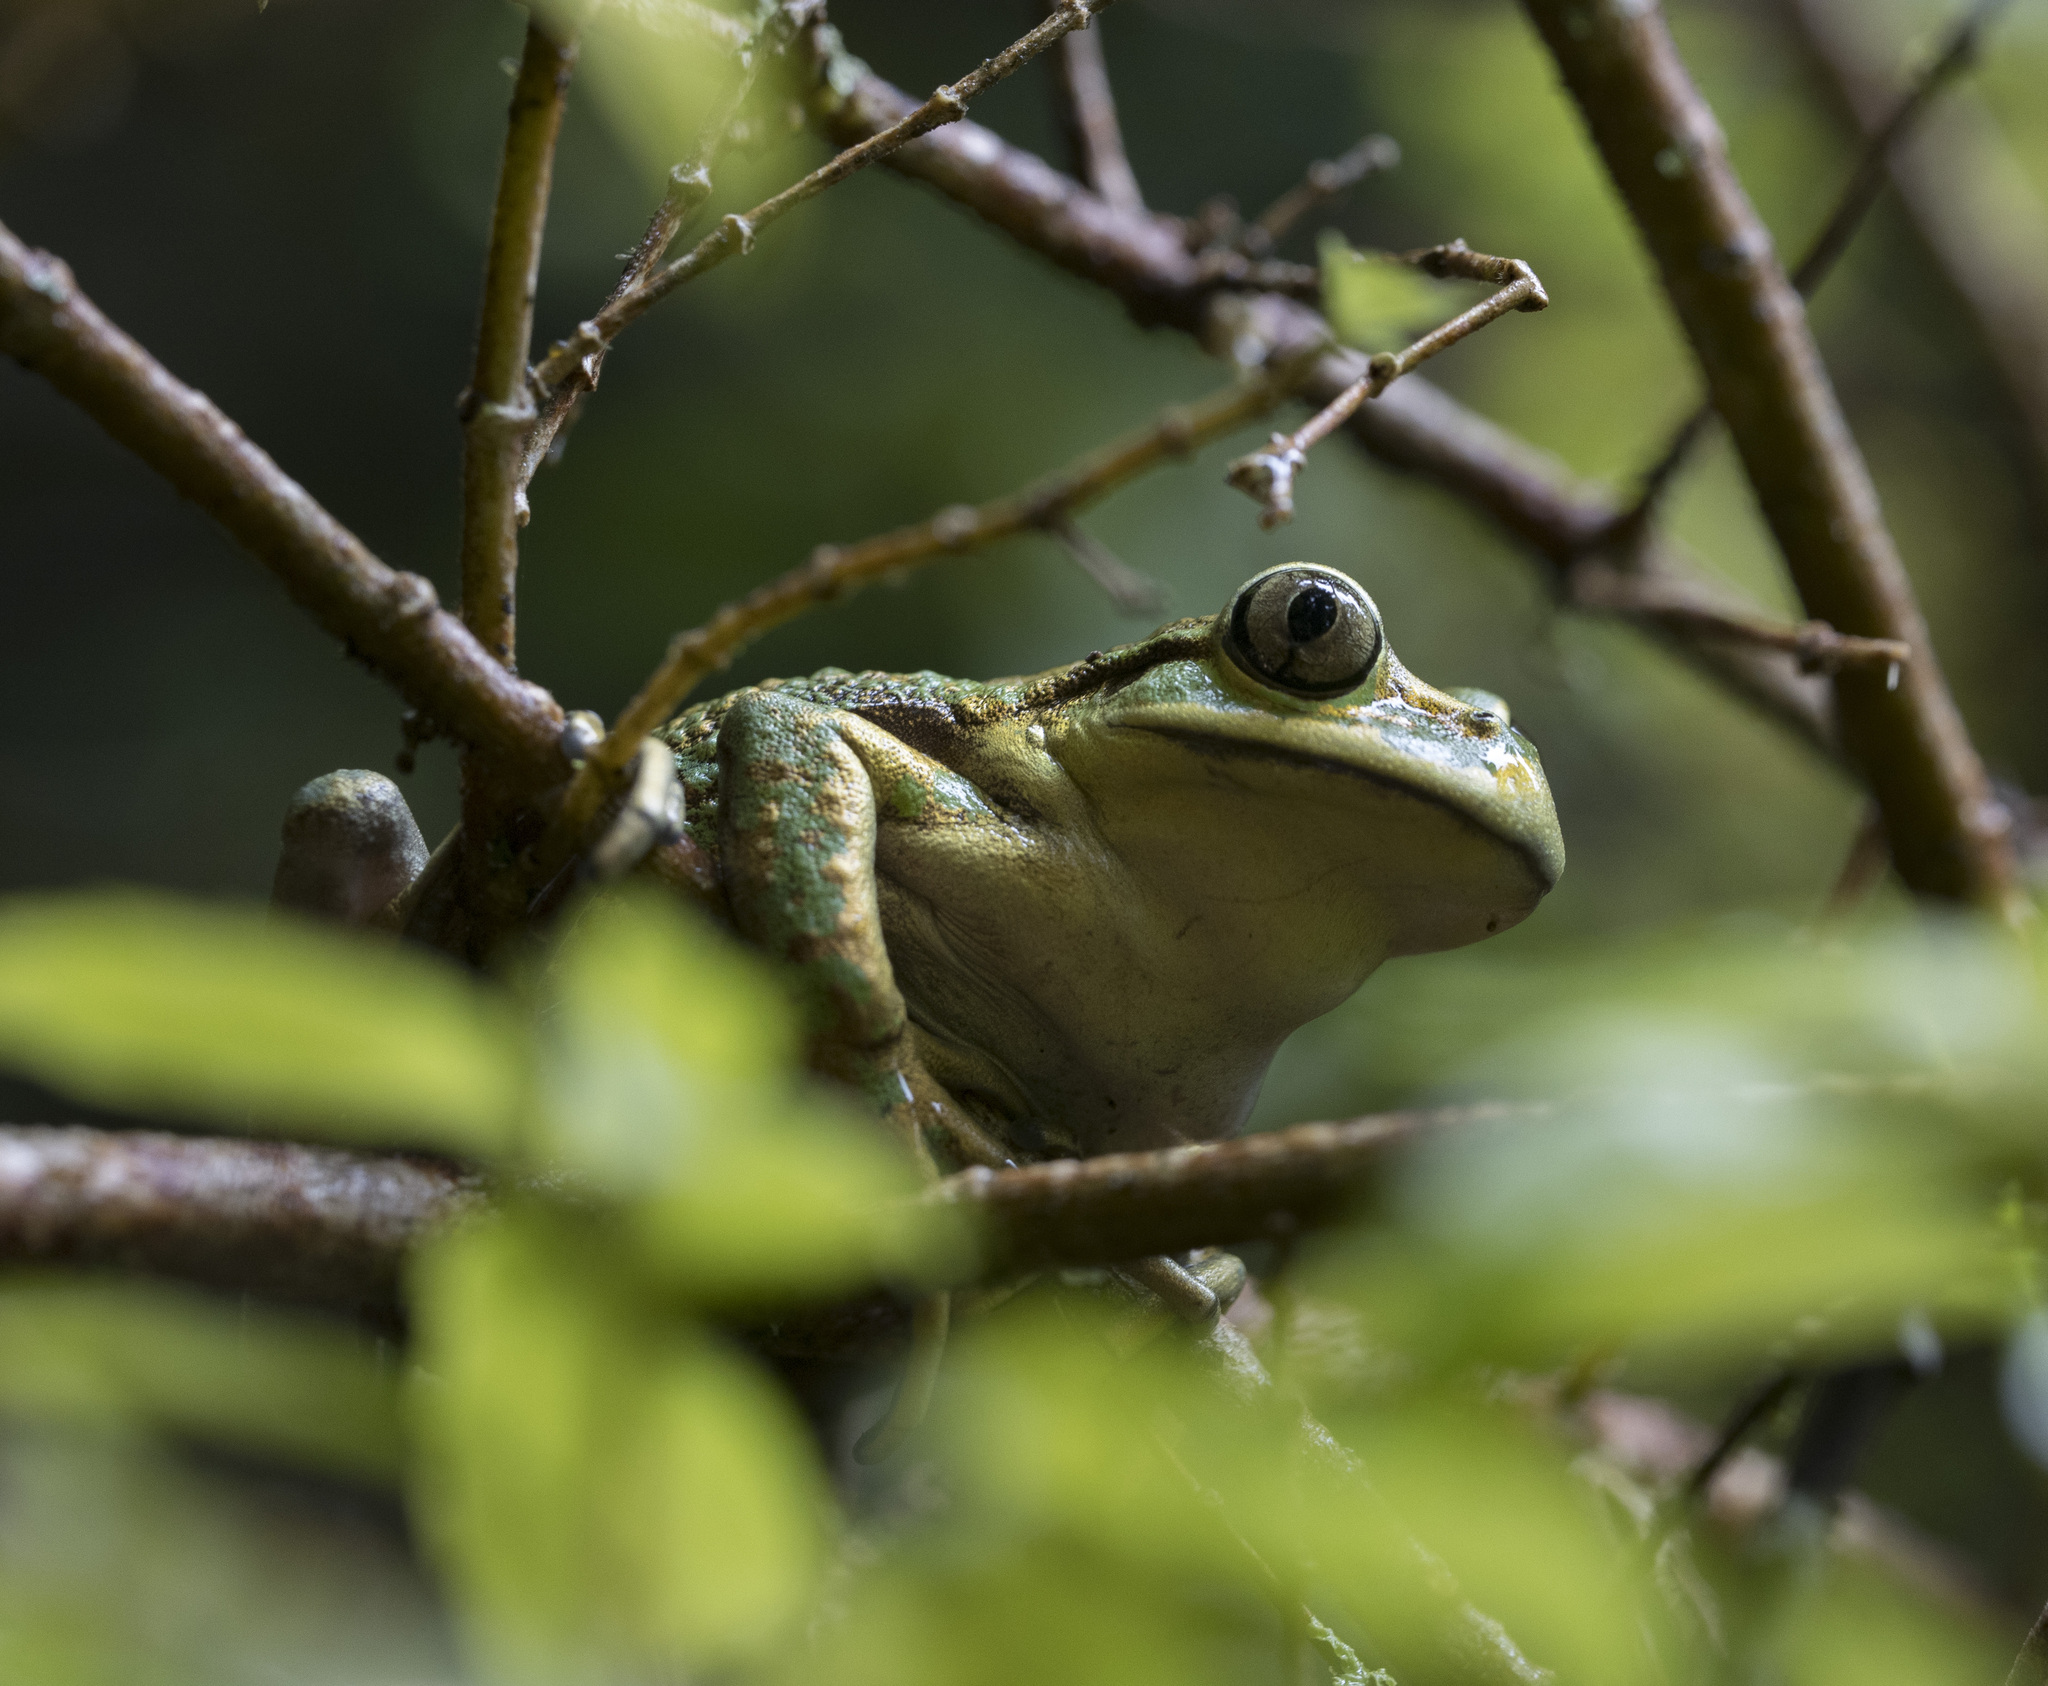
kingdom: Animalia
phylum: Chordata
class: Amphibia
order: Anura
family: Batrachylidae
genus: Hylorina
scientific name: Hylorina sylvatica
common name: Emerald forest frog
